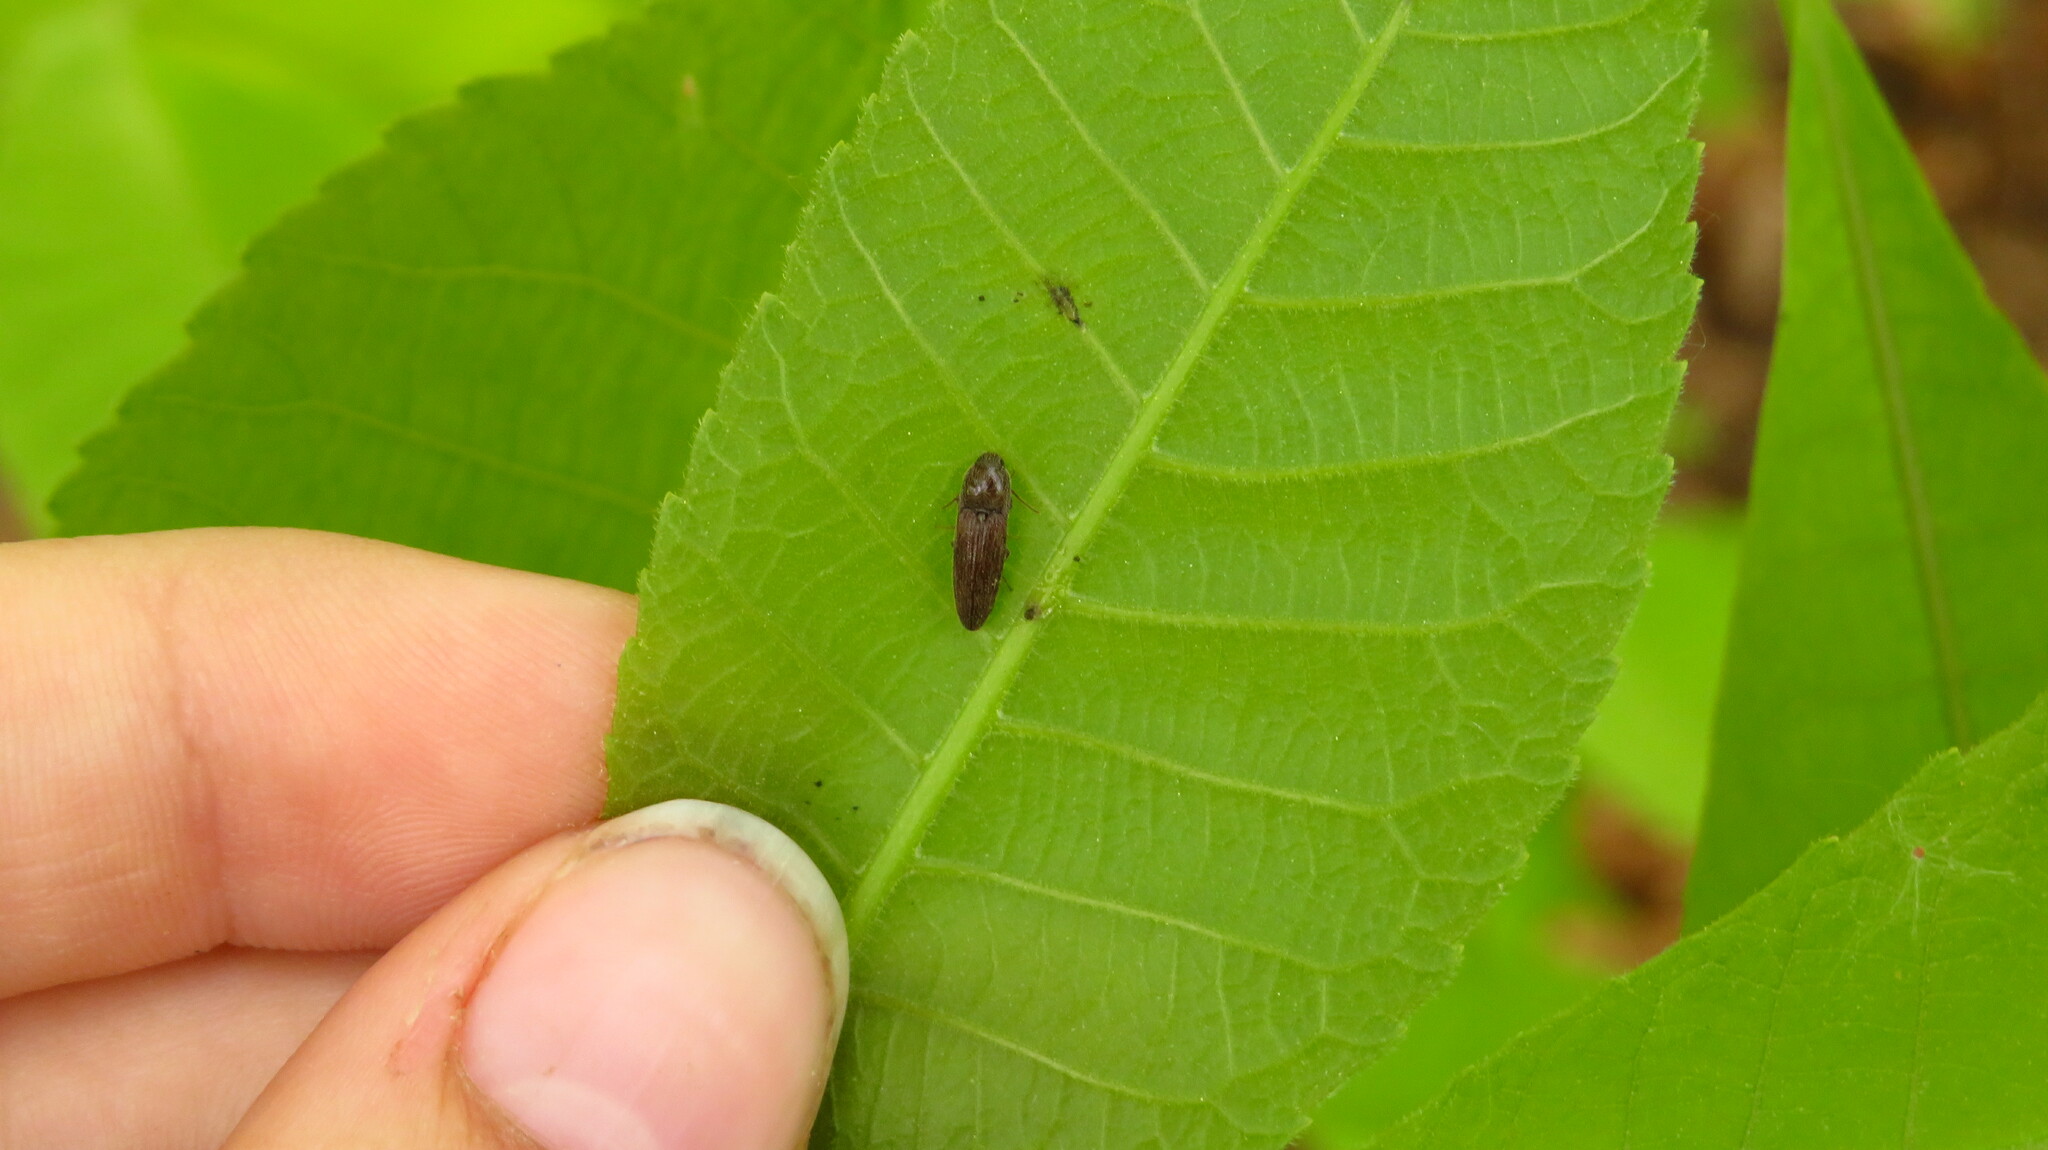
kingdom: Animalia
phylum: Arthropoda
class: Insecta
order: Coleoptera
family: Elateridae
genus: Melanotus
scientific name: Melanotus
